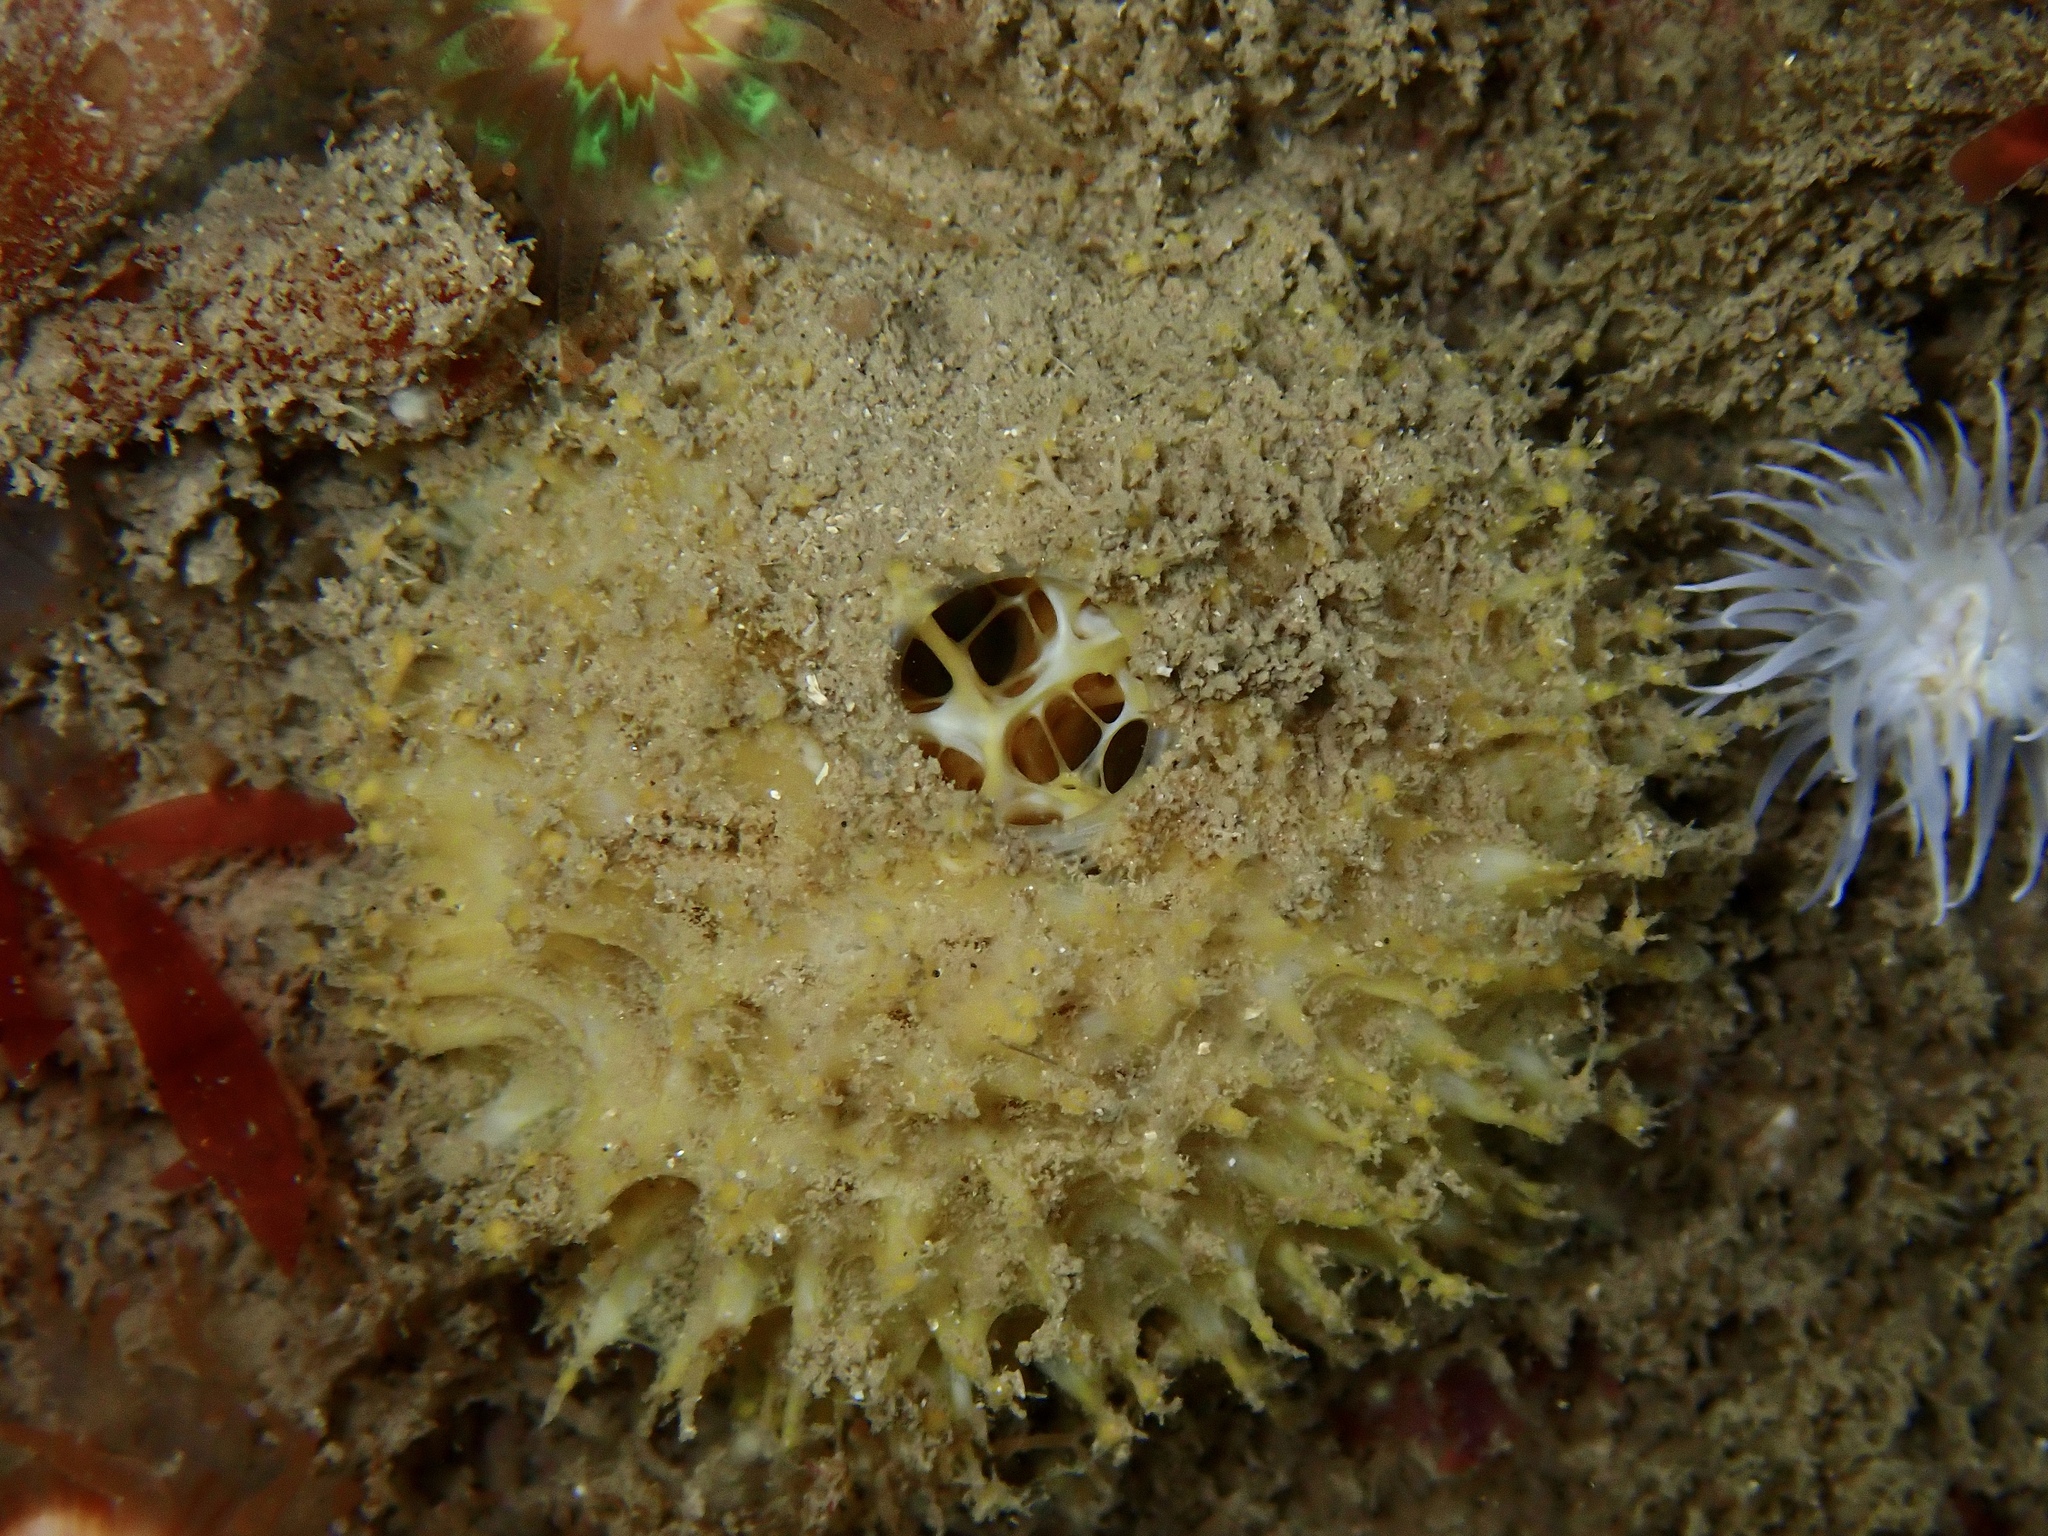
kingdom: Animalia
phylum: Porifera
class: Demospongiae
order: Tethyida
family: Tethyidae
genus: Tethya
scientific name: Tethya citrina
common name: Sea lemon
